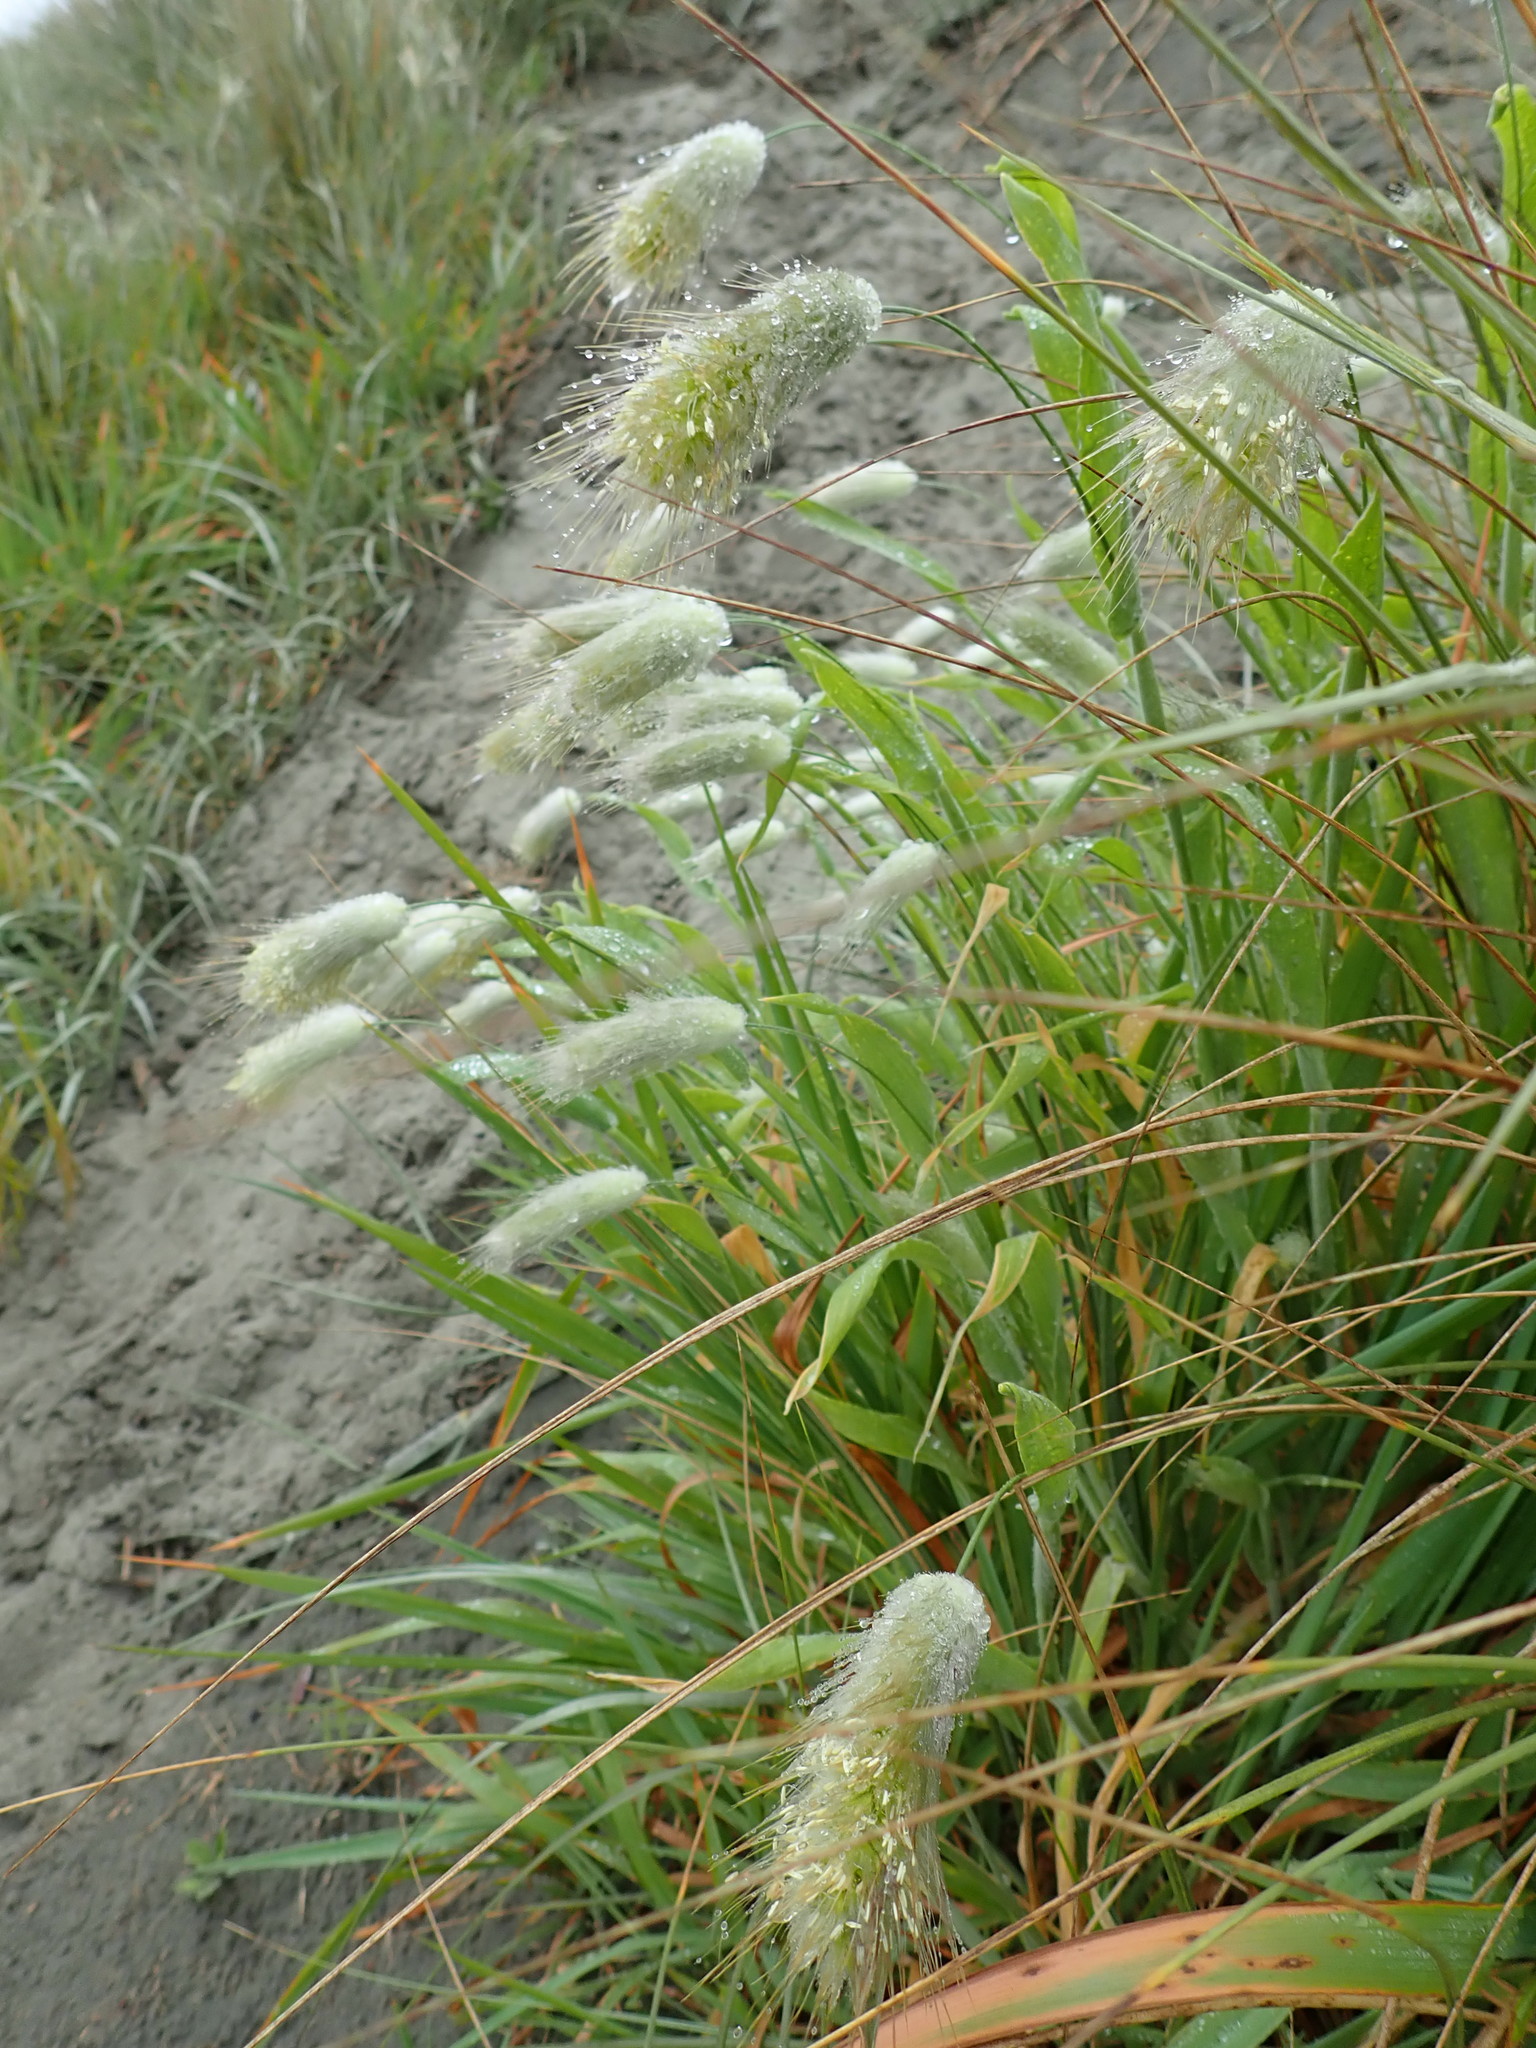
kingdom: Plantae
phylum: Tracheophyta
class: Liliopsida
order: Poales
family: Poaceae
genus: Lagurus
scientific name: Lagurus ovatus
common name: Hare's-tail
